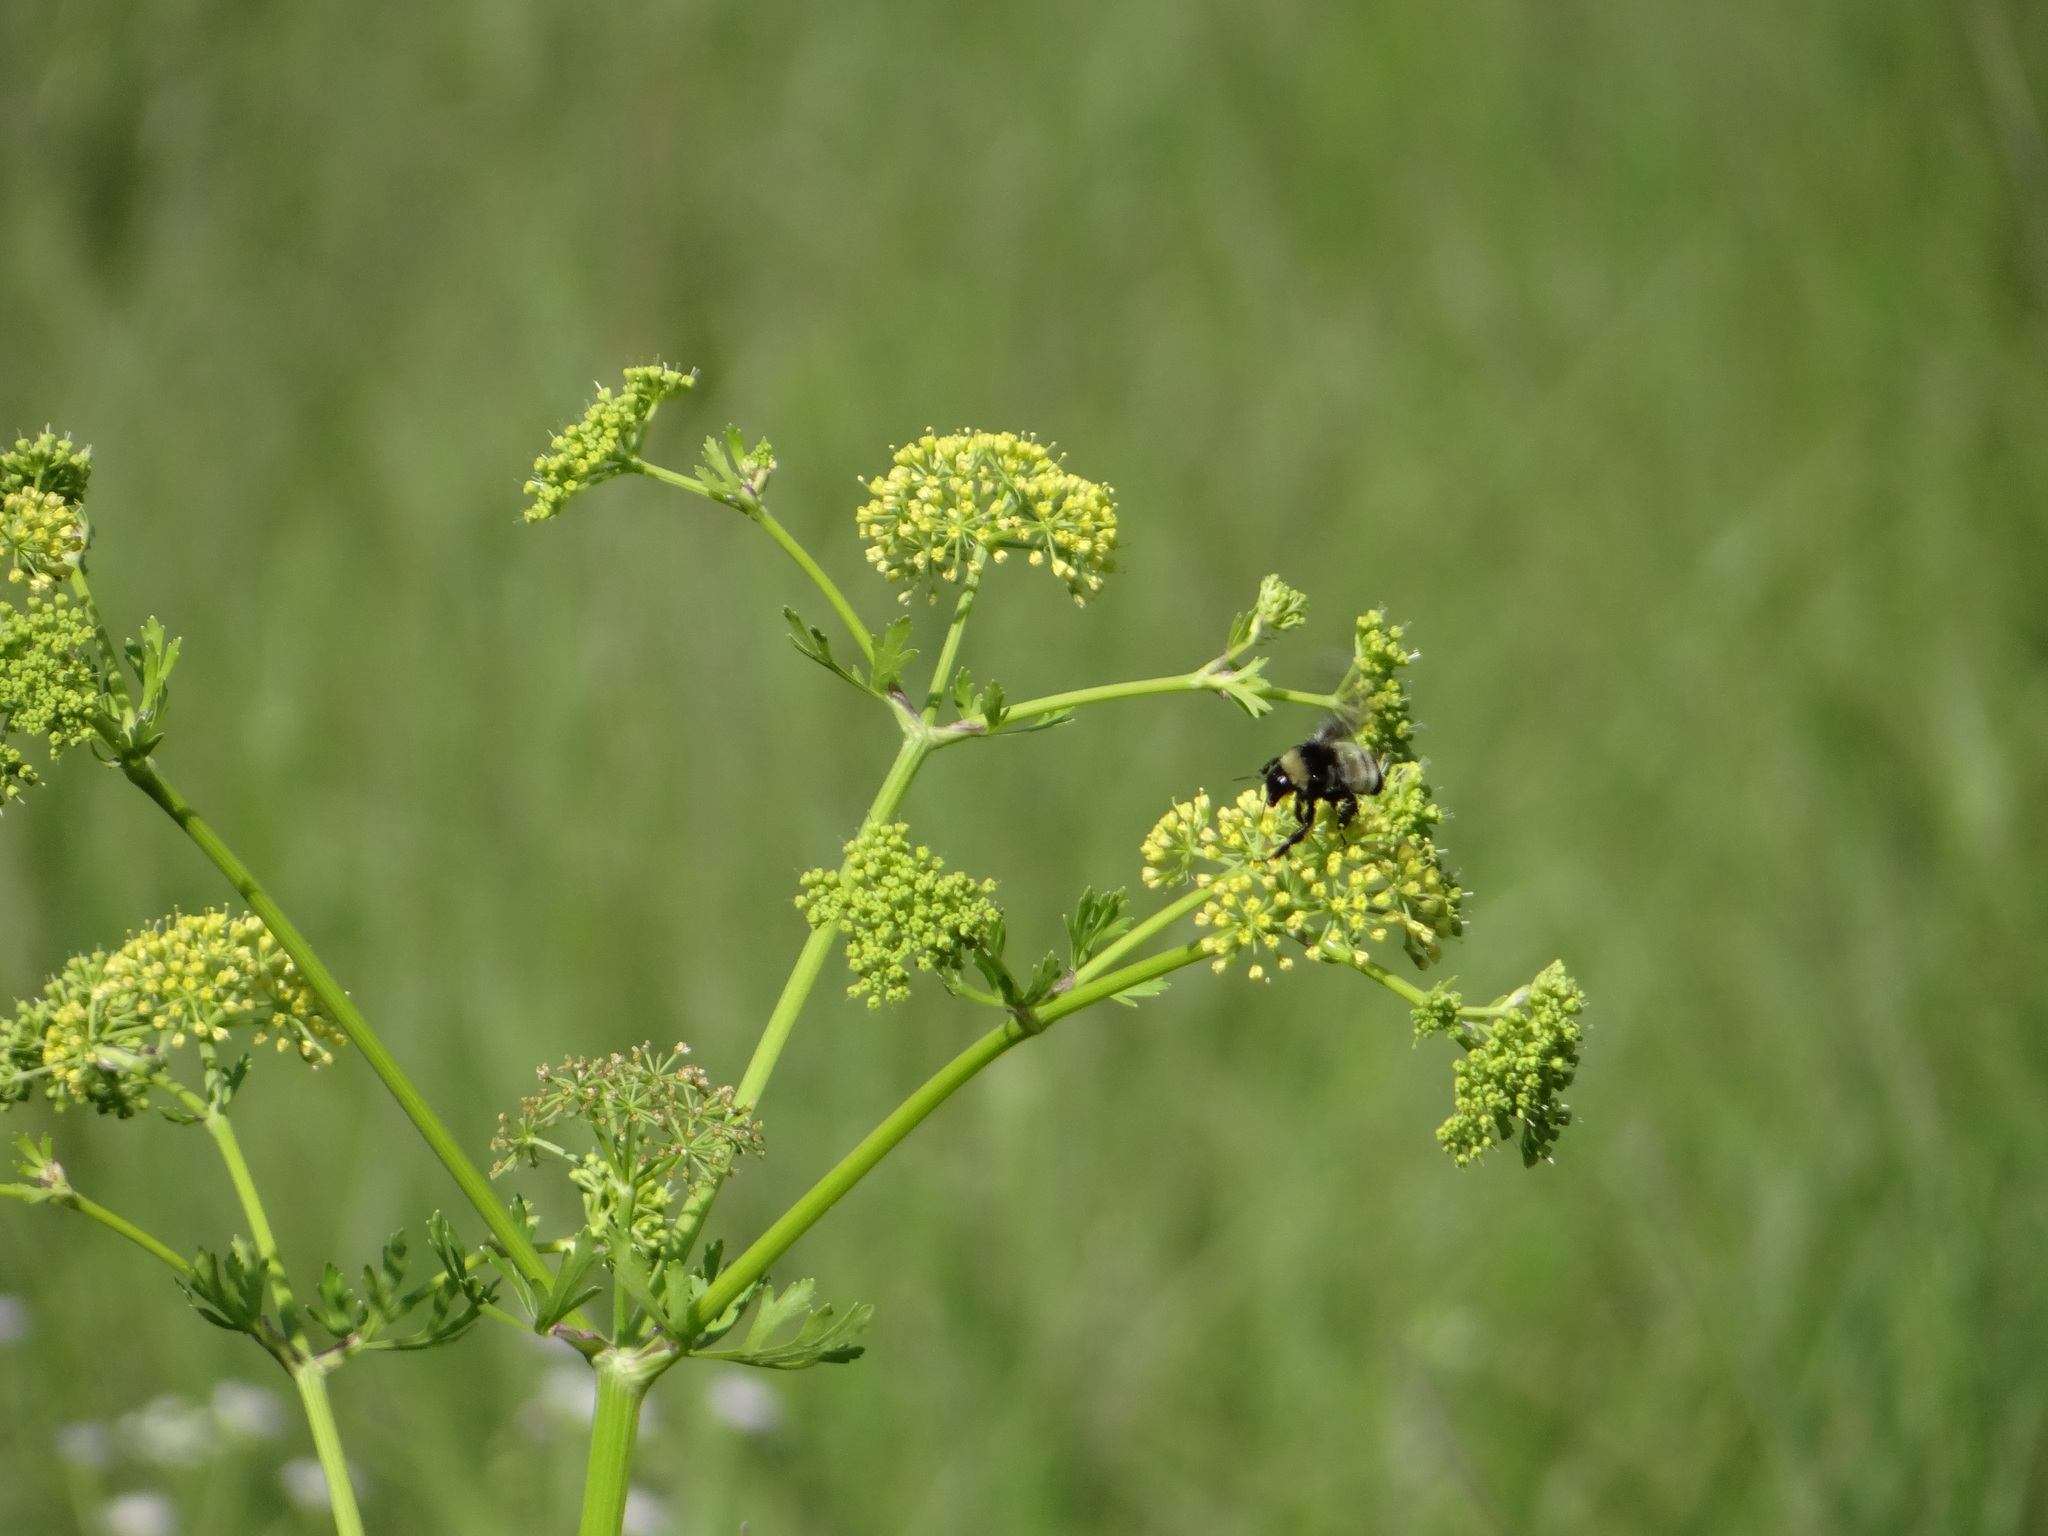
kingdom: Animalia
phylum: Arthropoda
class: Insecta
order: Hymenoptera
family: Apidae
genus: Bombus
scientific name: Bombus pensylvanicus
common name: Bumble bee
